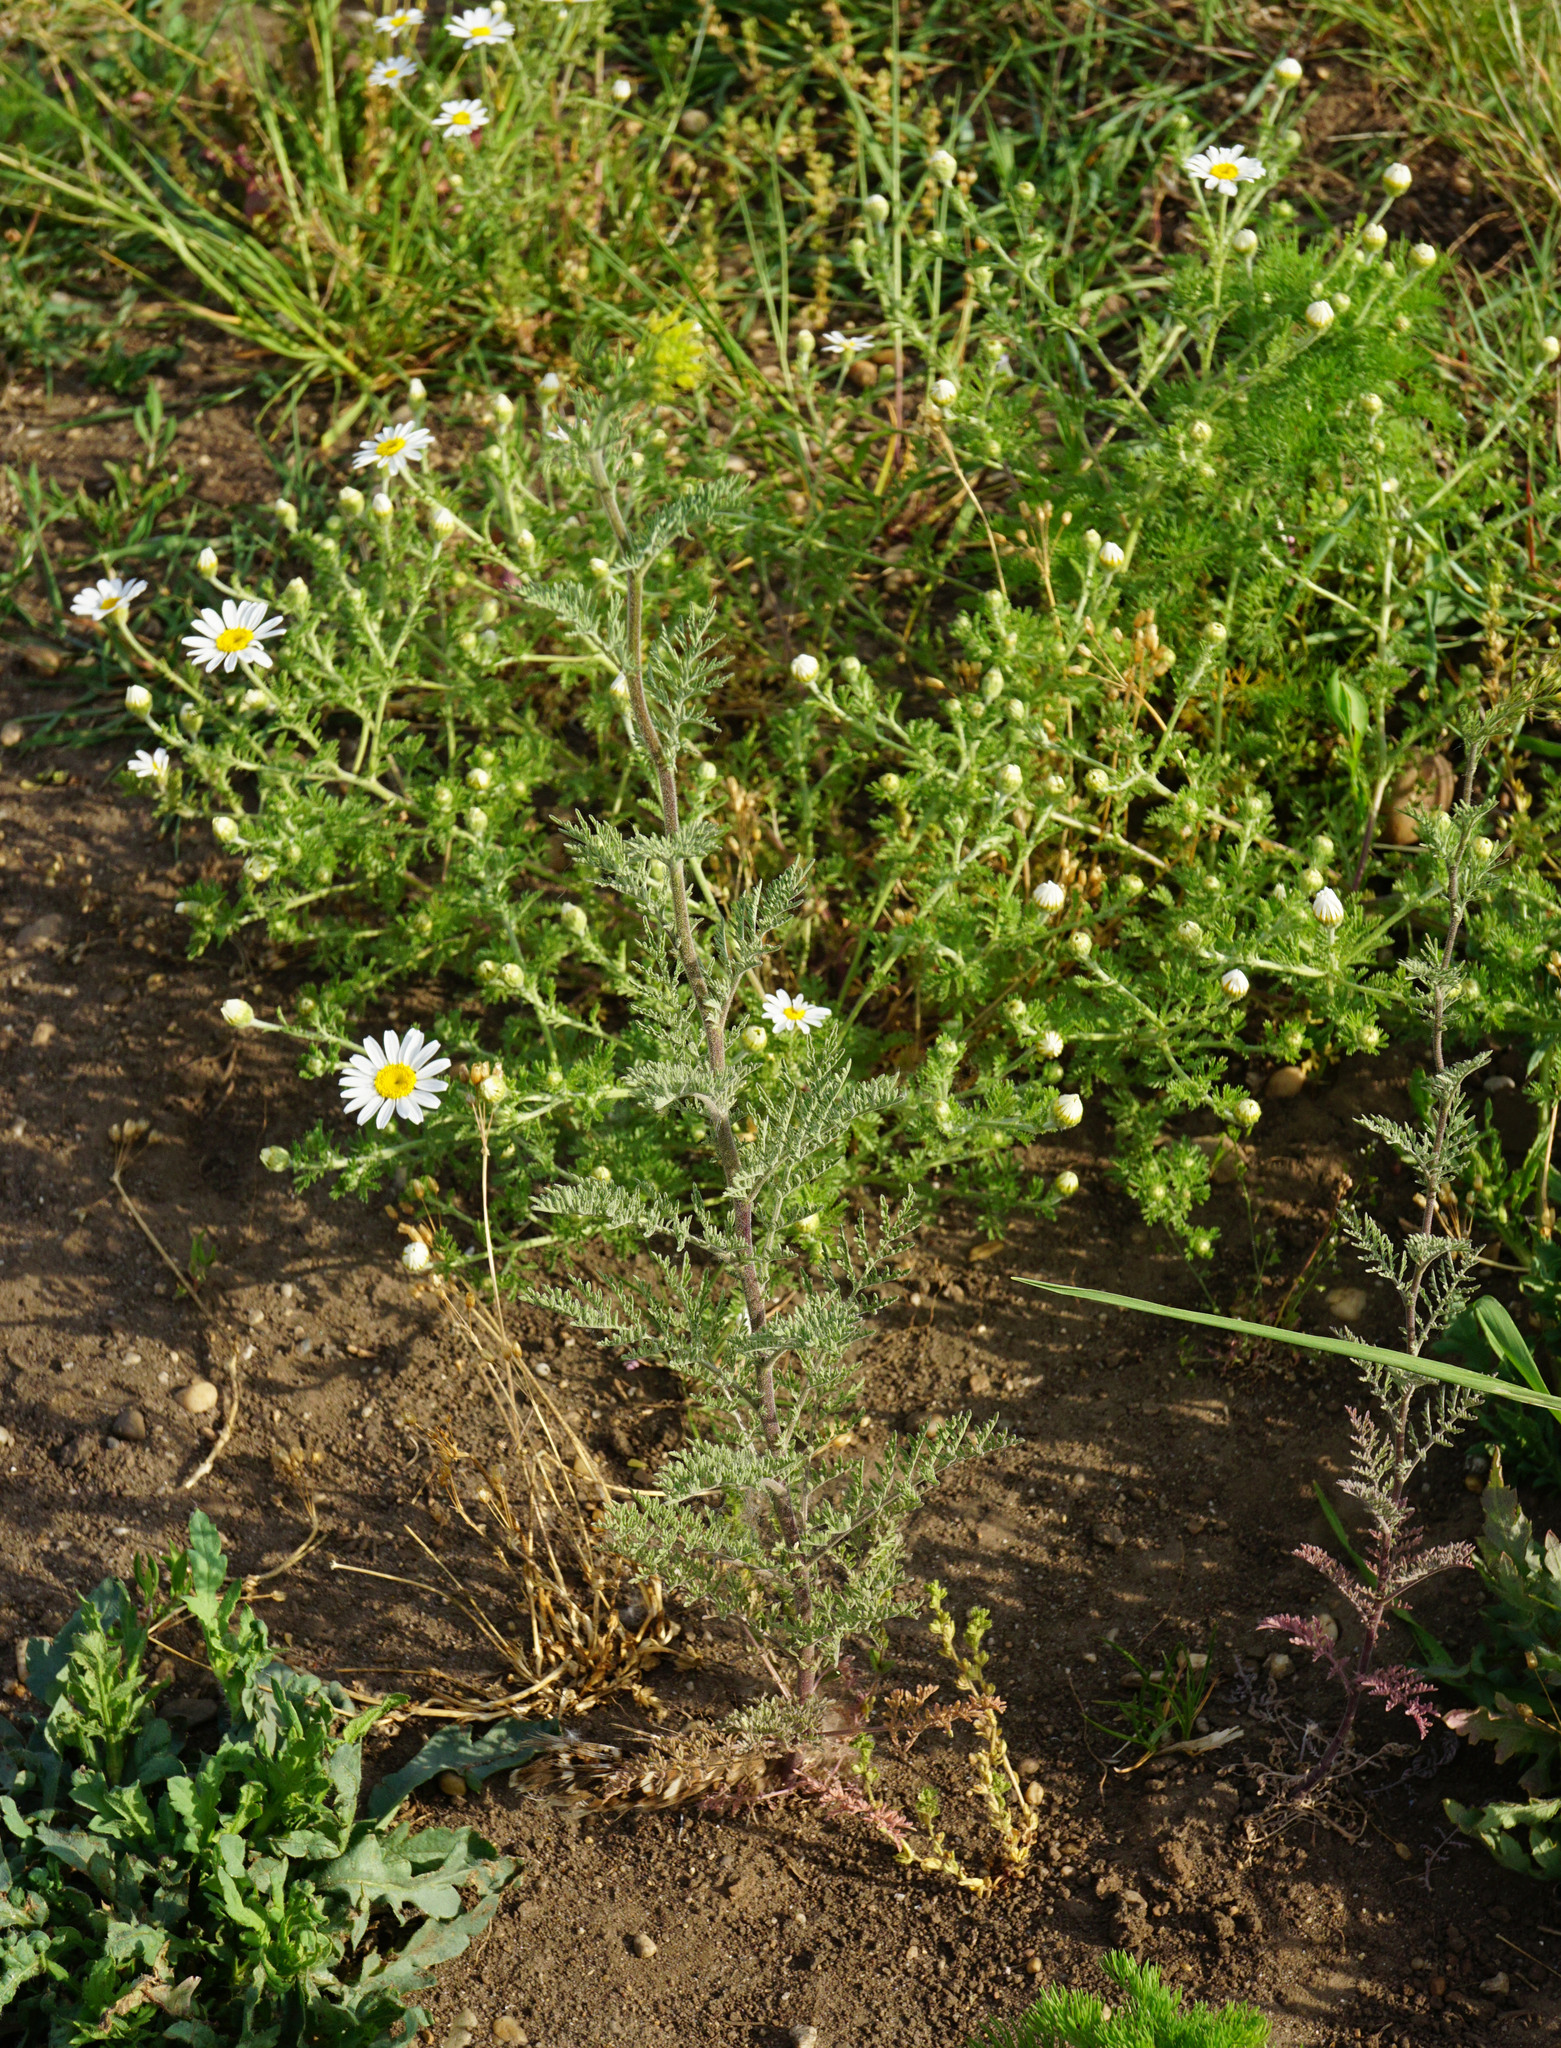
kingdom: Plantae
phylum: Tracheophyta
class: Magnoliopsida
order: Brassicales
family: Brassicaceae
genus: Descurainia
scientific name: Descurainia sophia
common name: Flixweed
